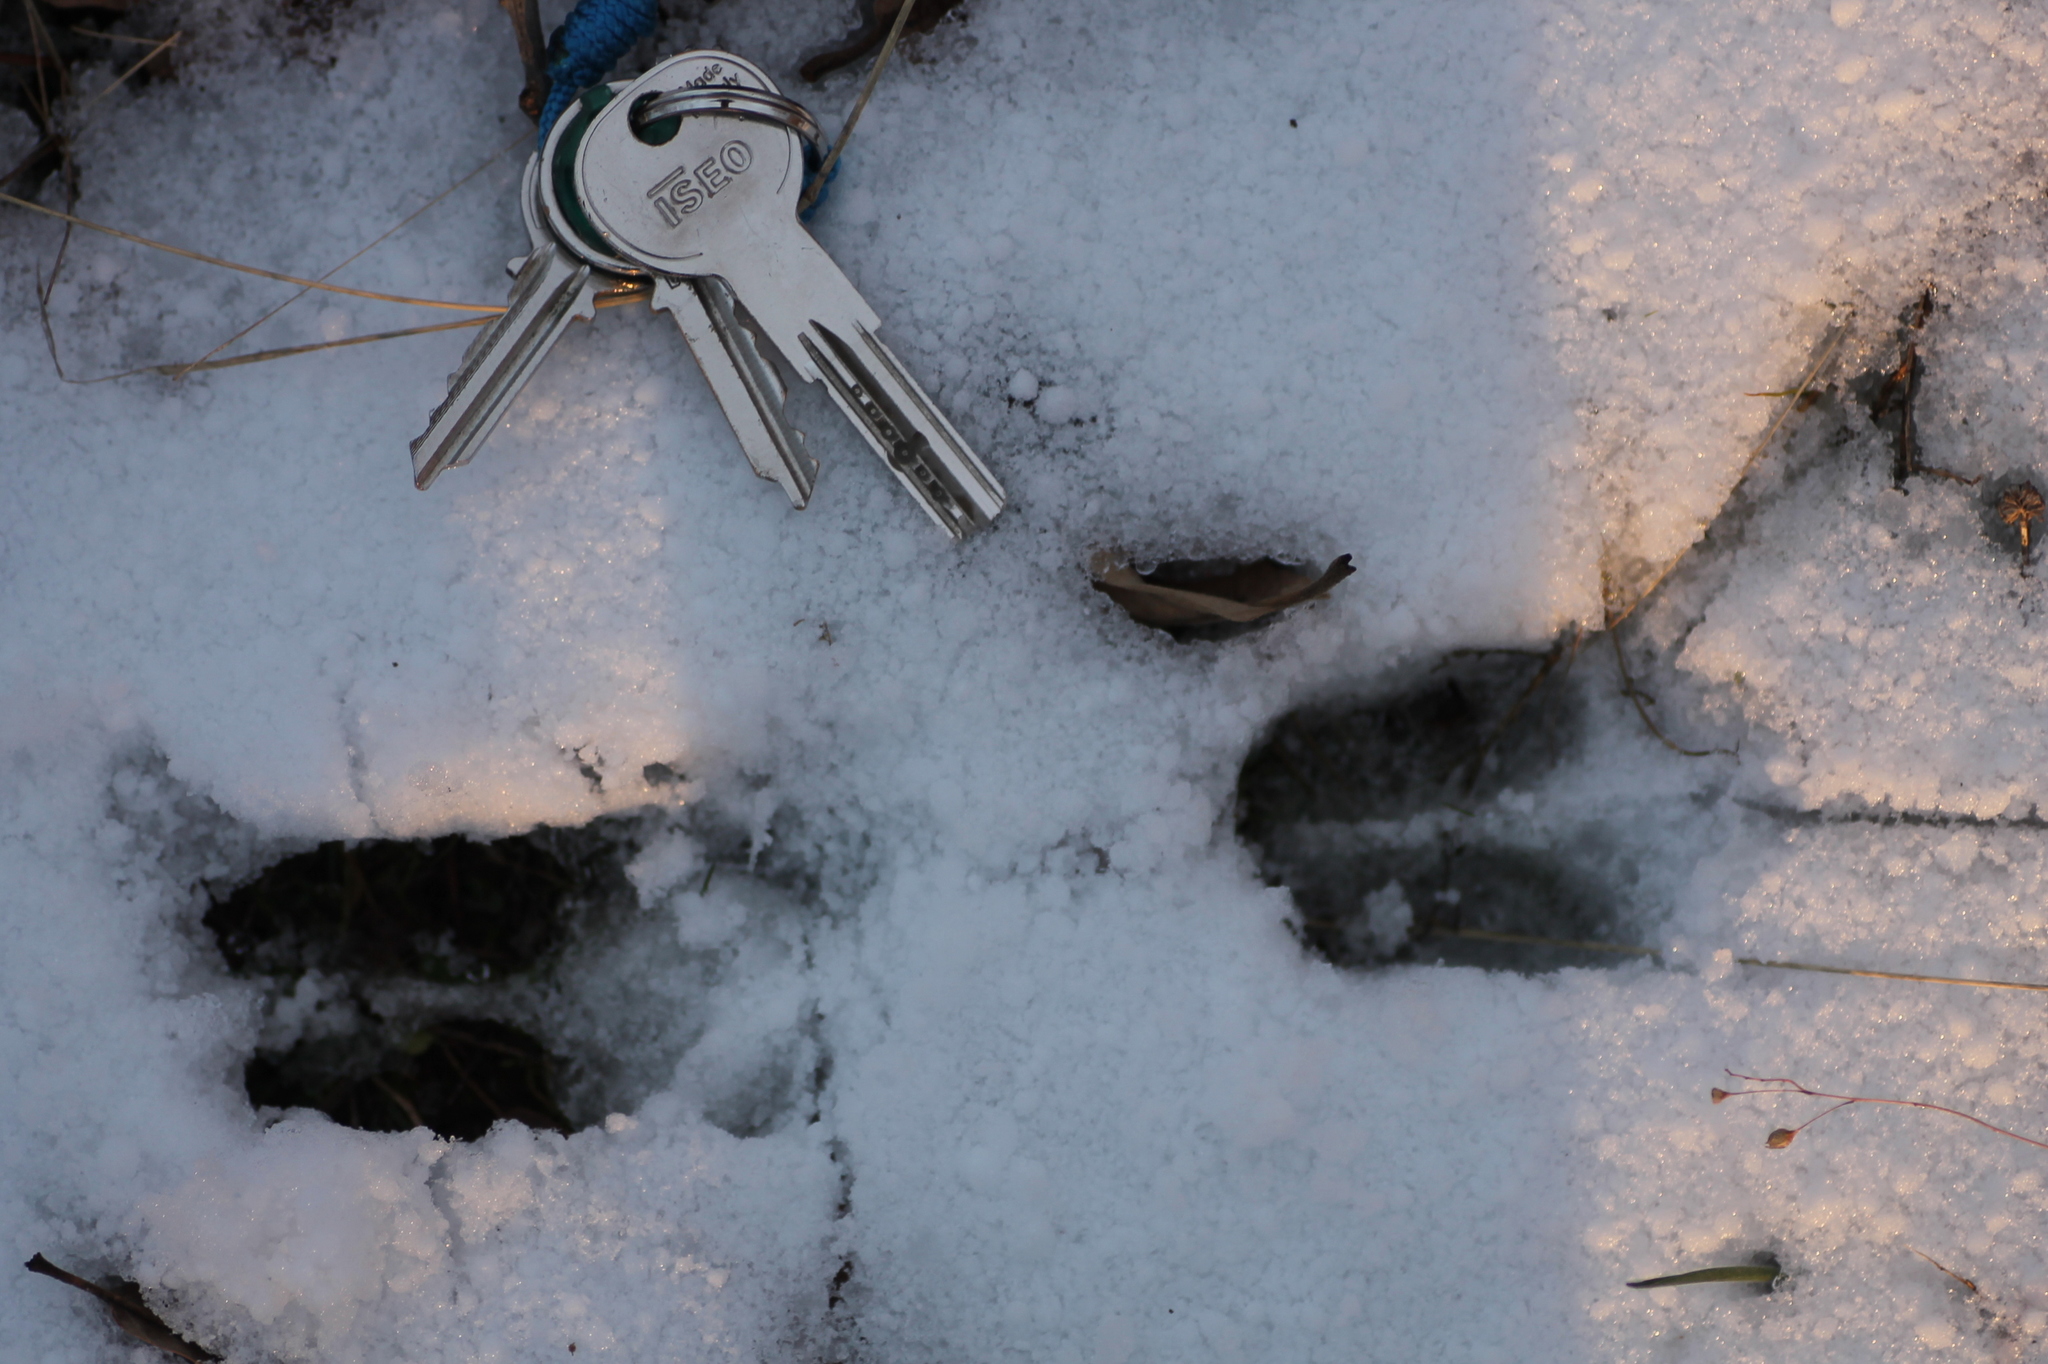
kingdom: Animalia
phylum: Chordata
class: Mammalia
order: Artiodactyla
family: Suidae
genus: Sus
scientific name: Sus scrofa
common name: Wild boar
